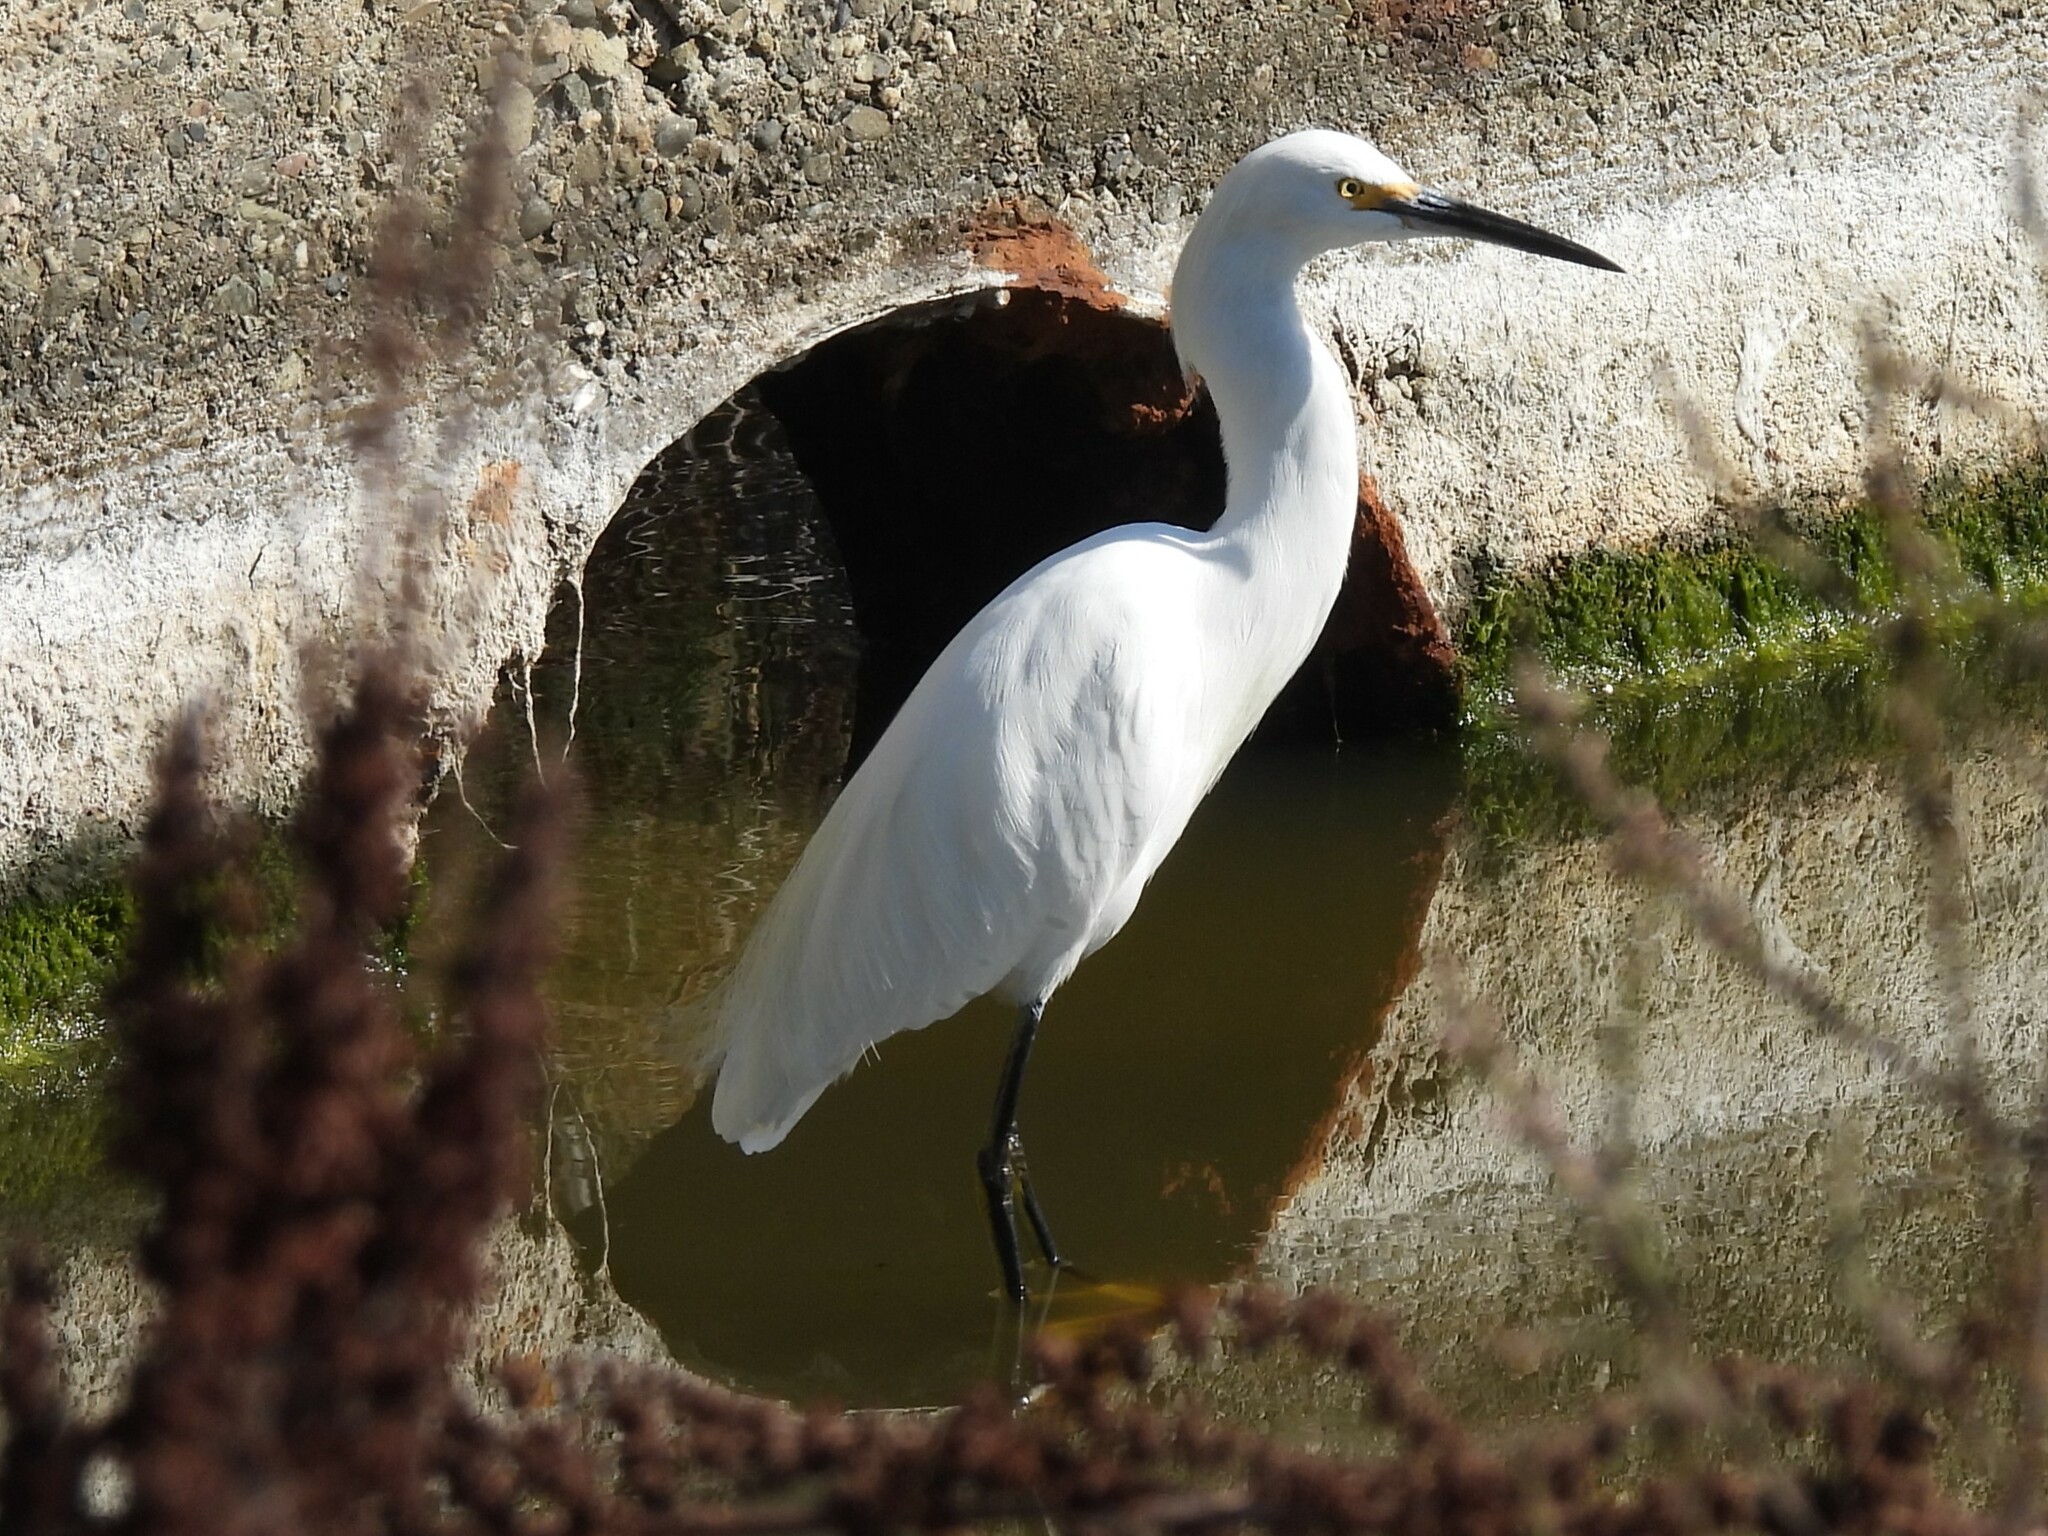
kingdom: Animalia
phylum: Chordata
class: Aves
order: Pelecaniformes
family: Ardeidae
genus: Egretta
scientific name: Egretta thula
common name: Snowy egret
